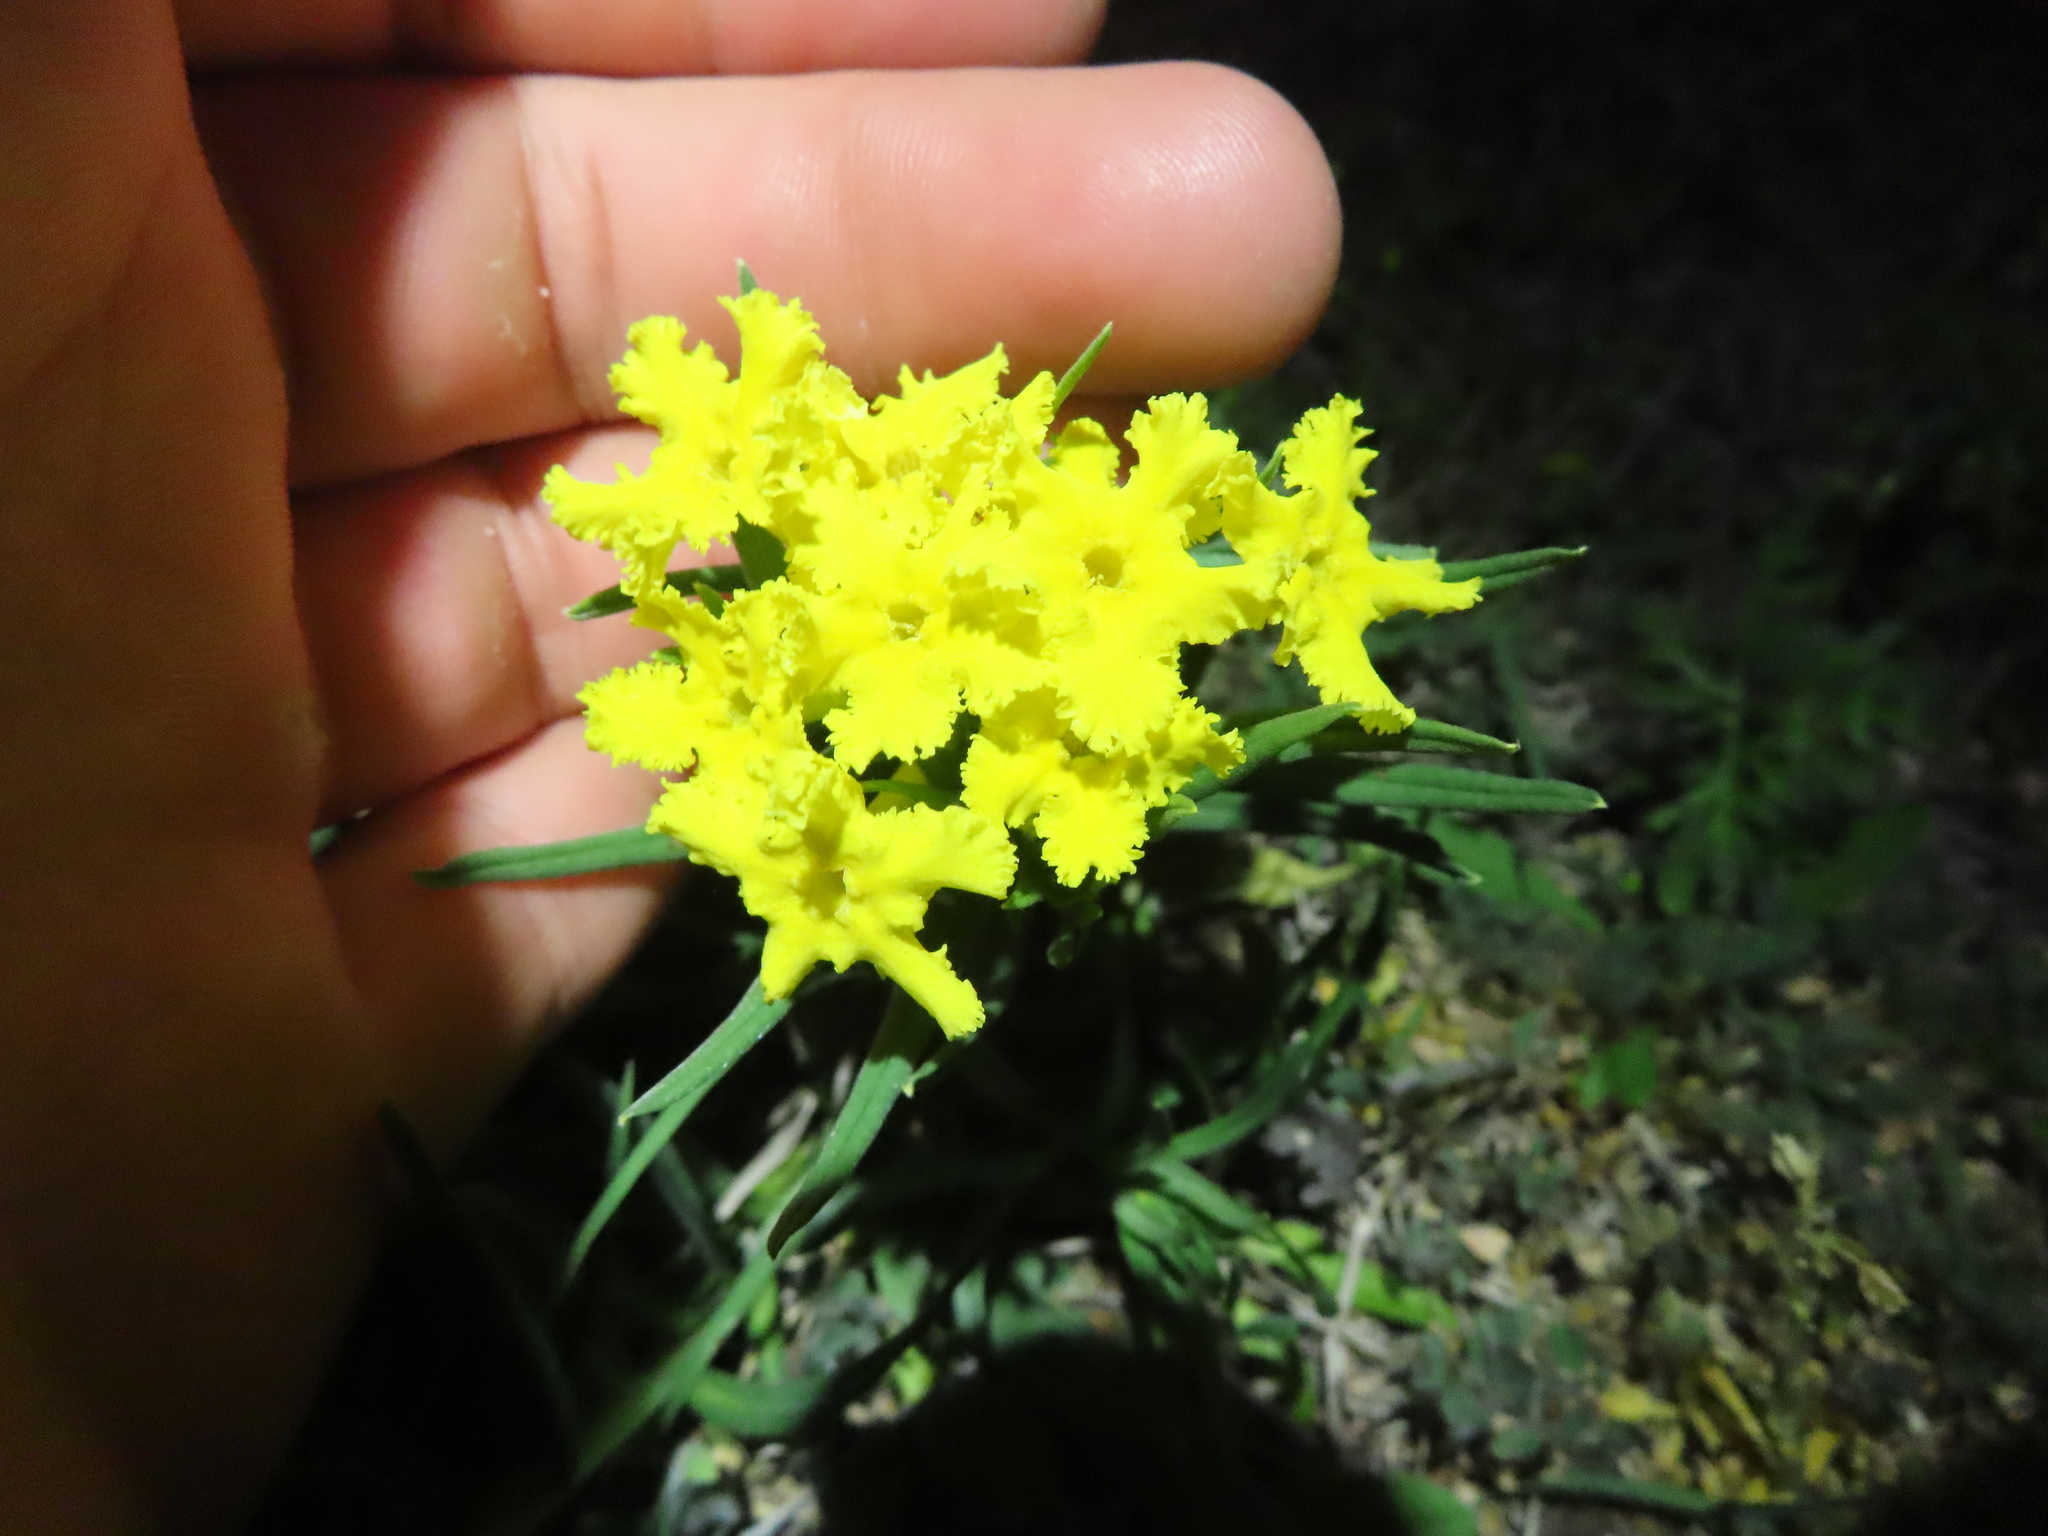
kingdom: Plantae
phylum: Tracheophyta
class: Magnoliopsida
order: Boraginales
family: Boraginaceae
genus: Lithospermum
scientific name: Lithospermum incisum
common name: Fringed gromwell
